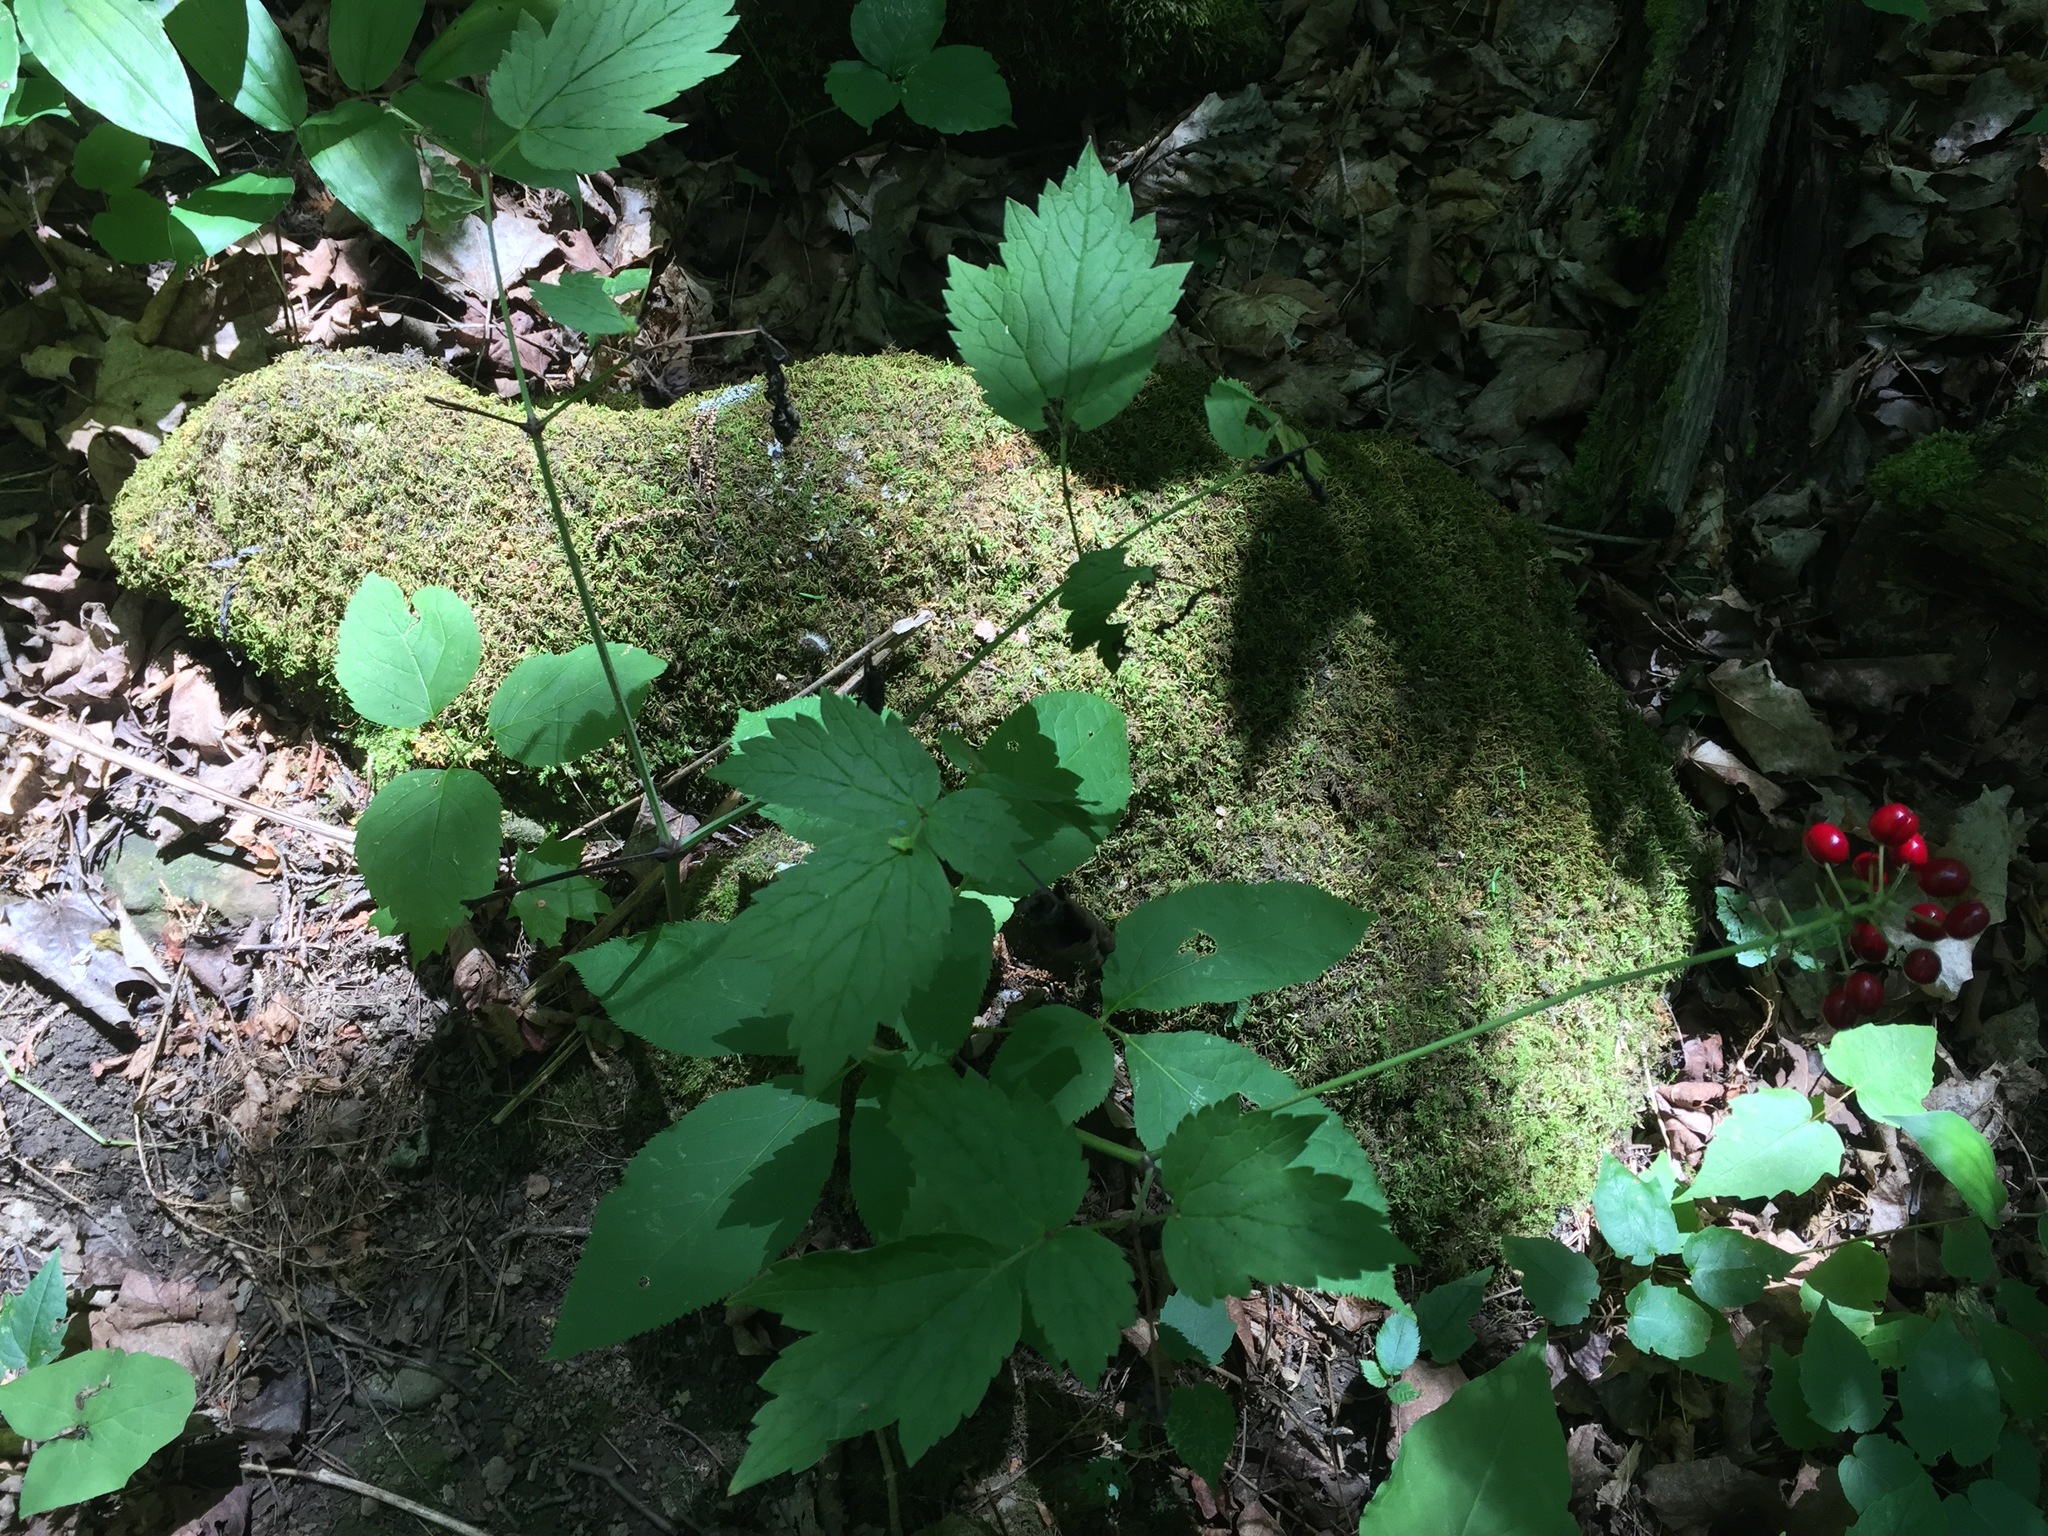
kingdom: Plantae
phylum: Tracheophyta
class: Magnoliopsida
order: Ranunculales
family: Ranunculaceae
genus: Actaea
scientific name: Actaea rubra
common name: Red baneberry
